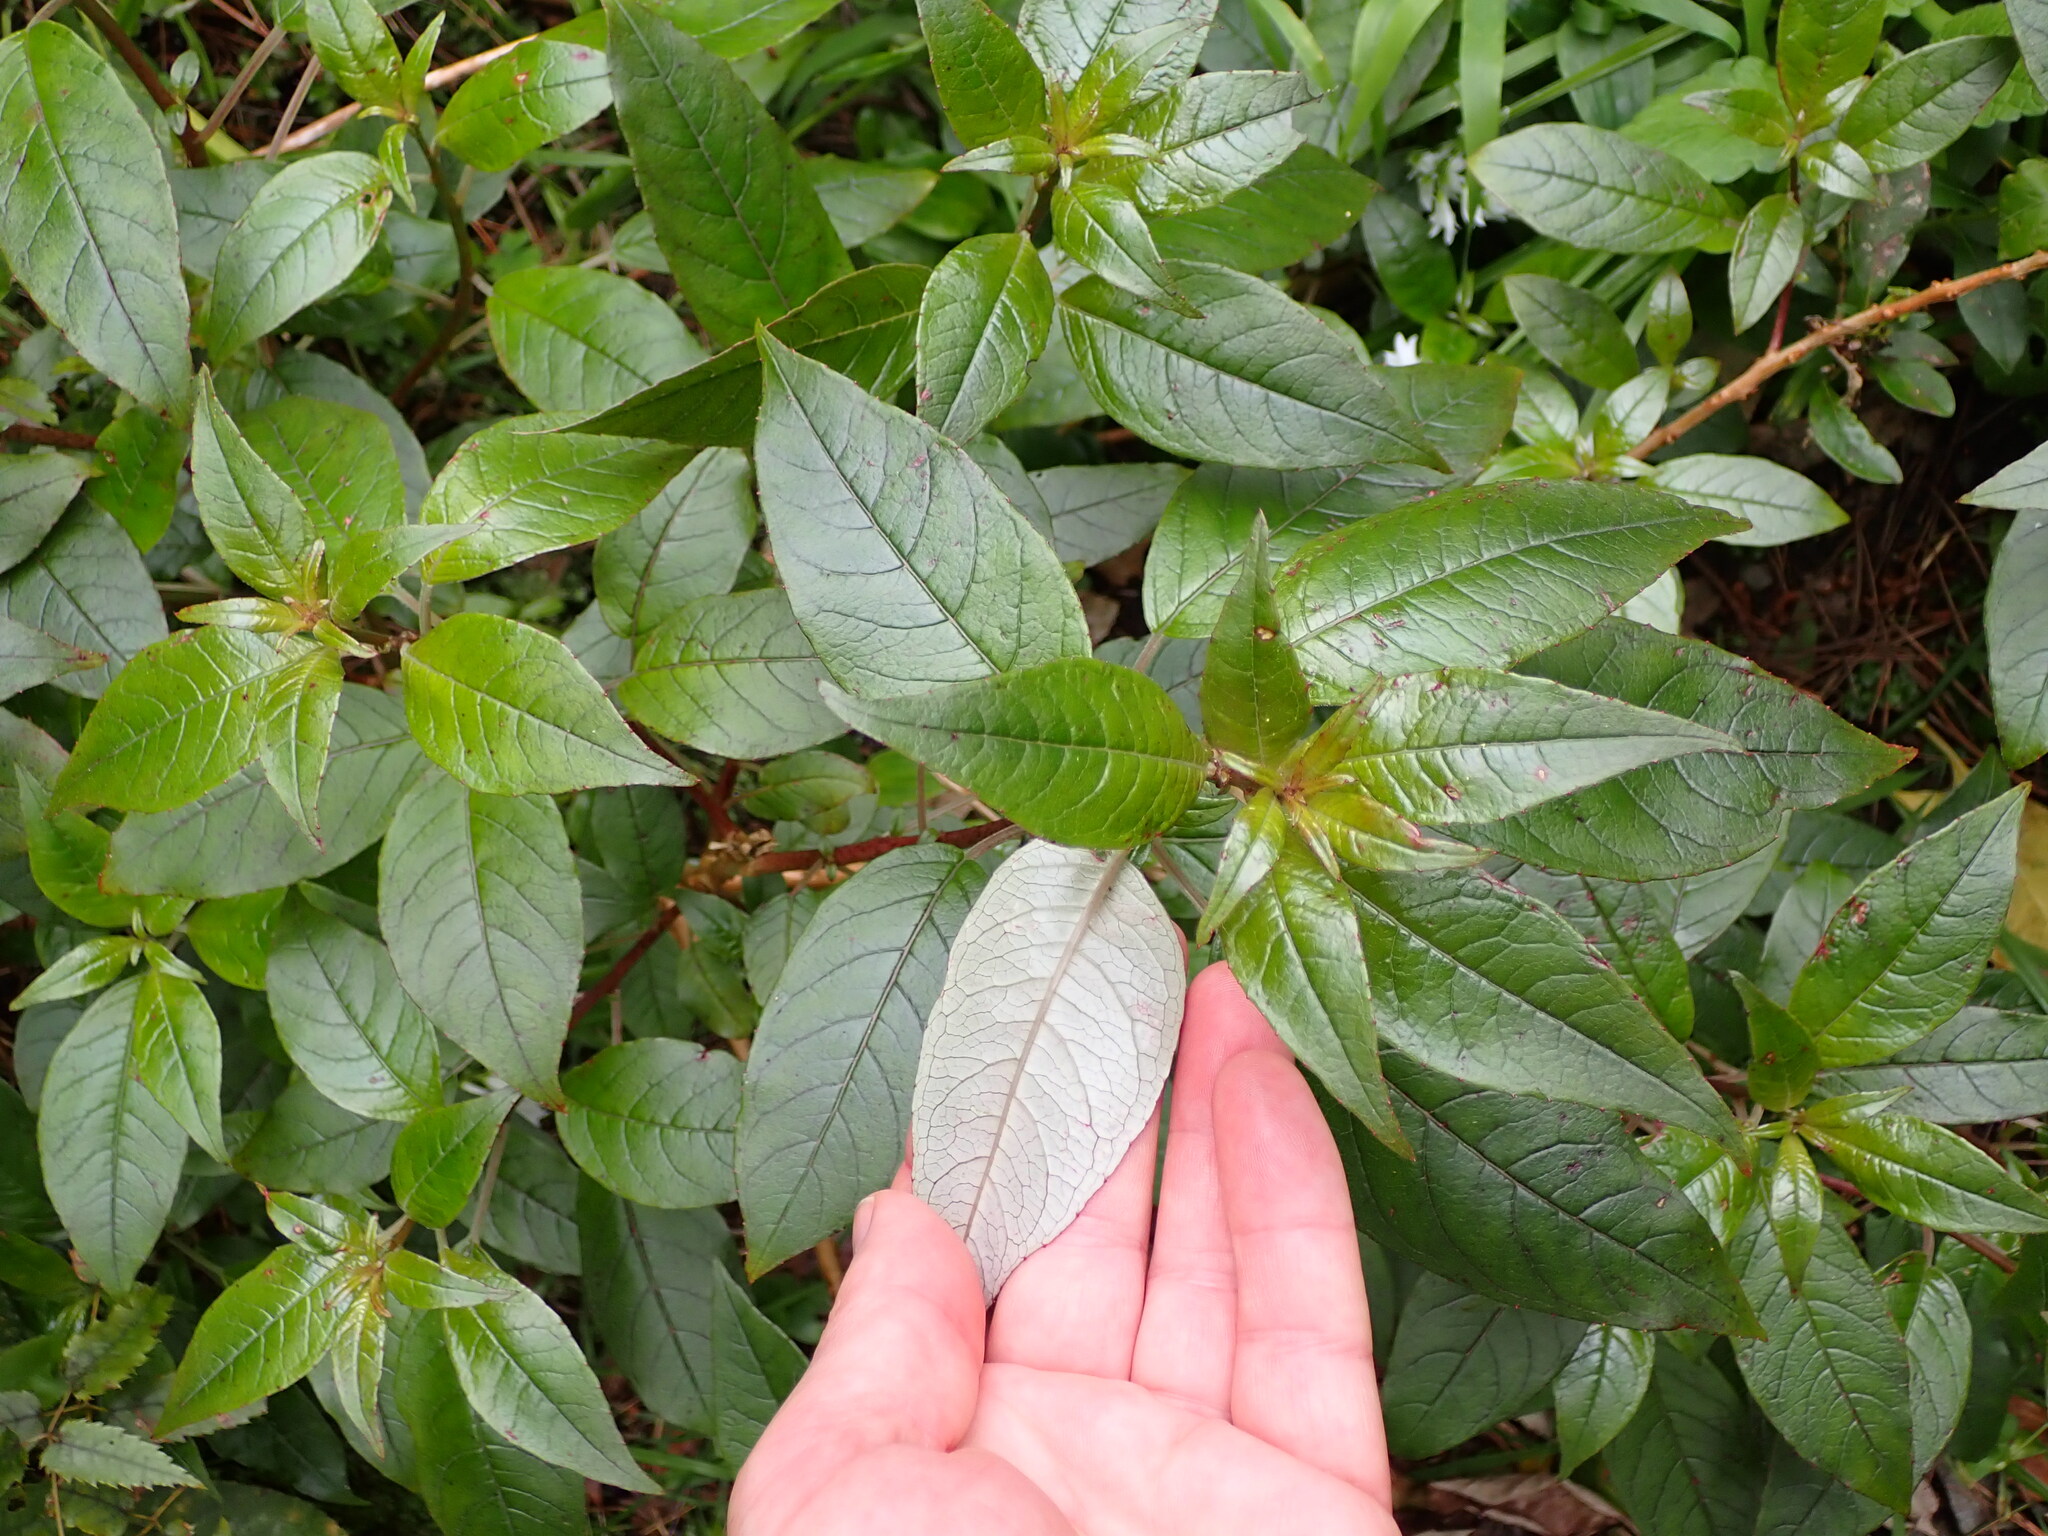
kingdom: Plantae
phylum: Tracheophyta
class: Magnoliopsida
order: Myrtales
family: Onagraceae
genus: Fuchsia
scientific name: Fuchsia excorticata
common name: Tree fuchsia
